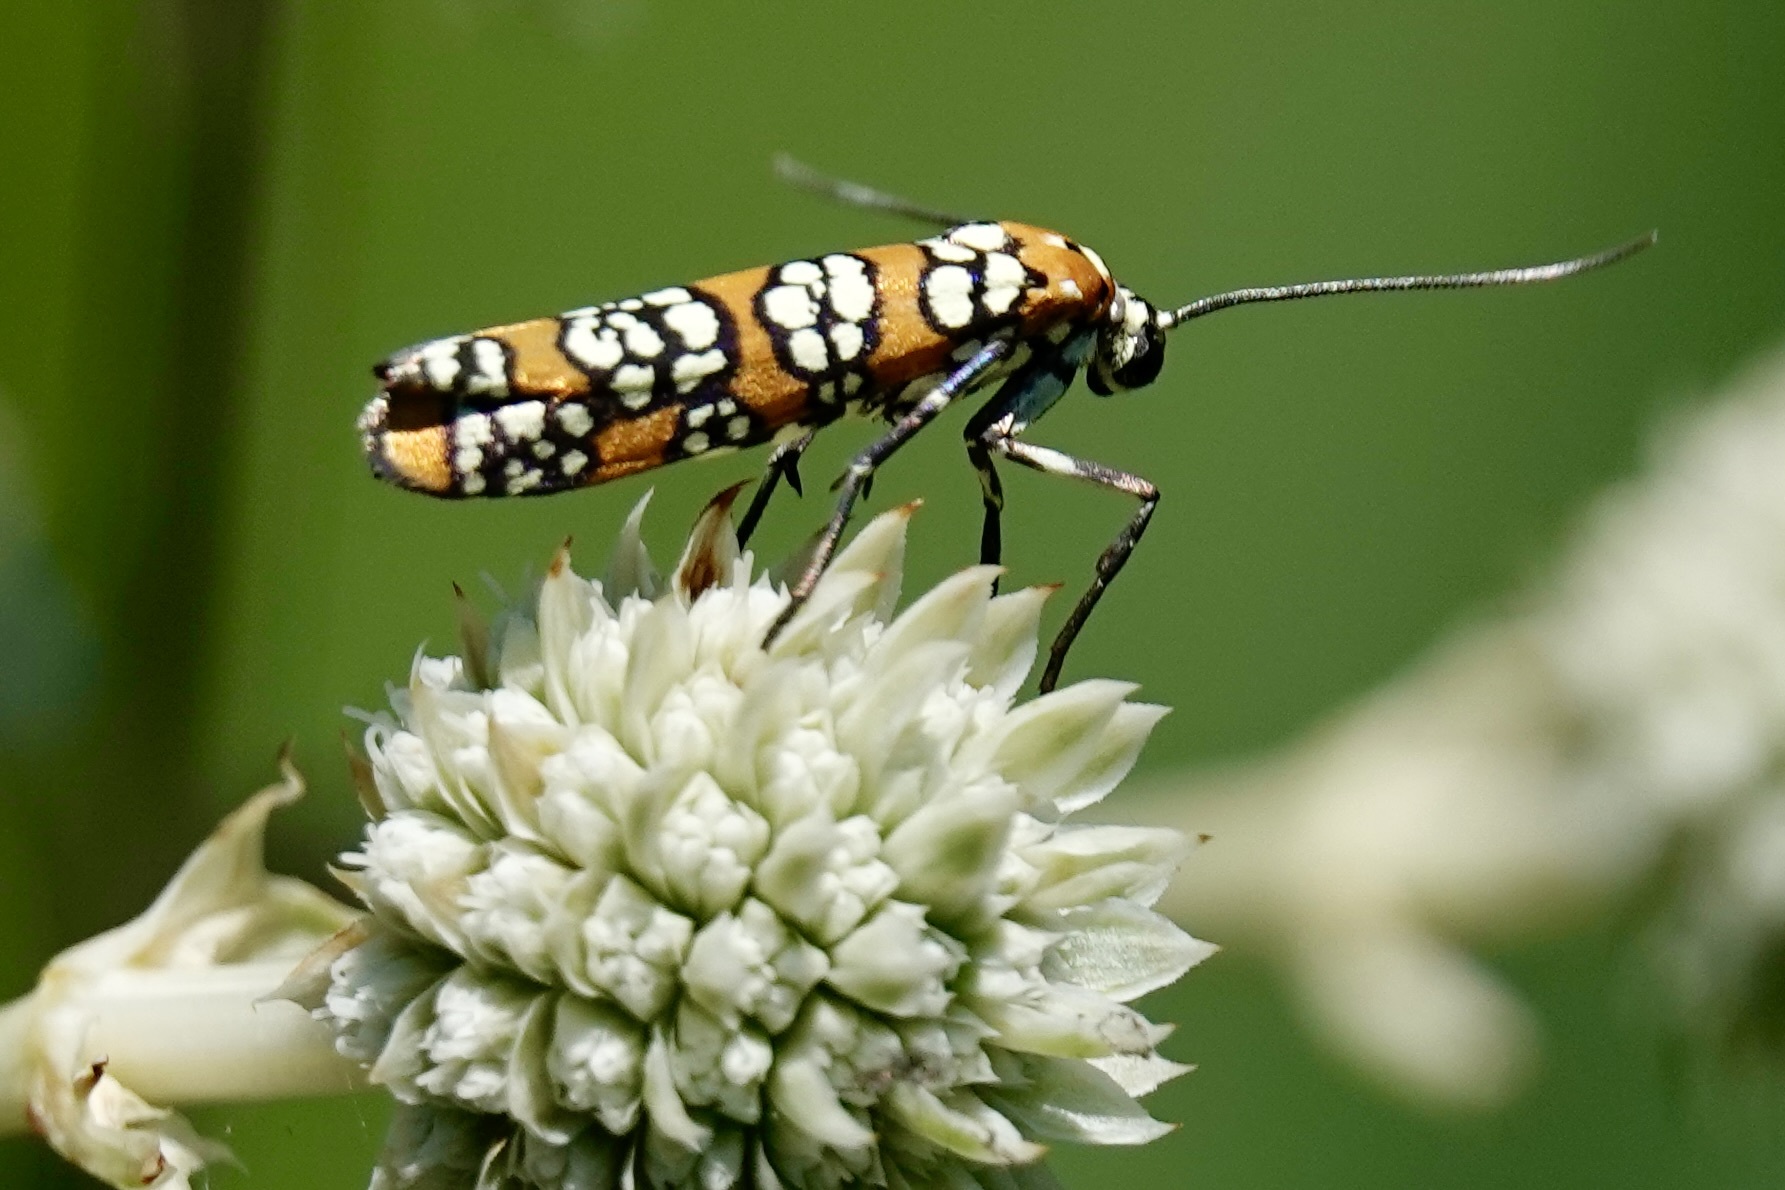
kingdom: Animalia
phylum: Arthropoda
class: Insecta
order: Lepidoptera
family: Attevidae
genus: Atteva
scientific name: Atteva punctella
